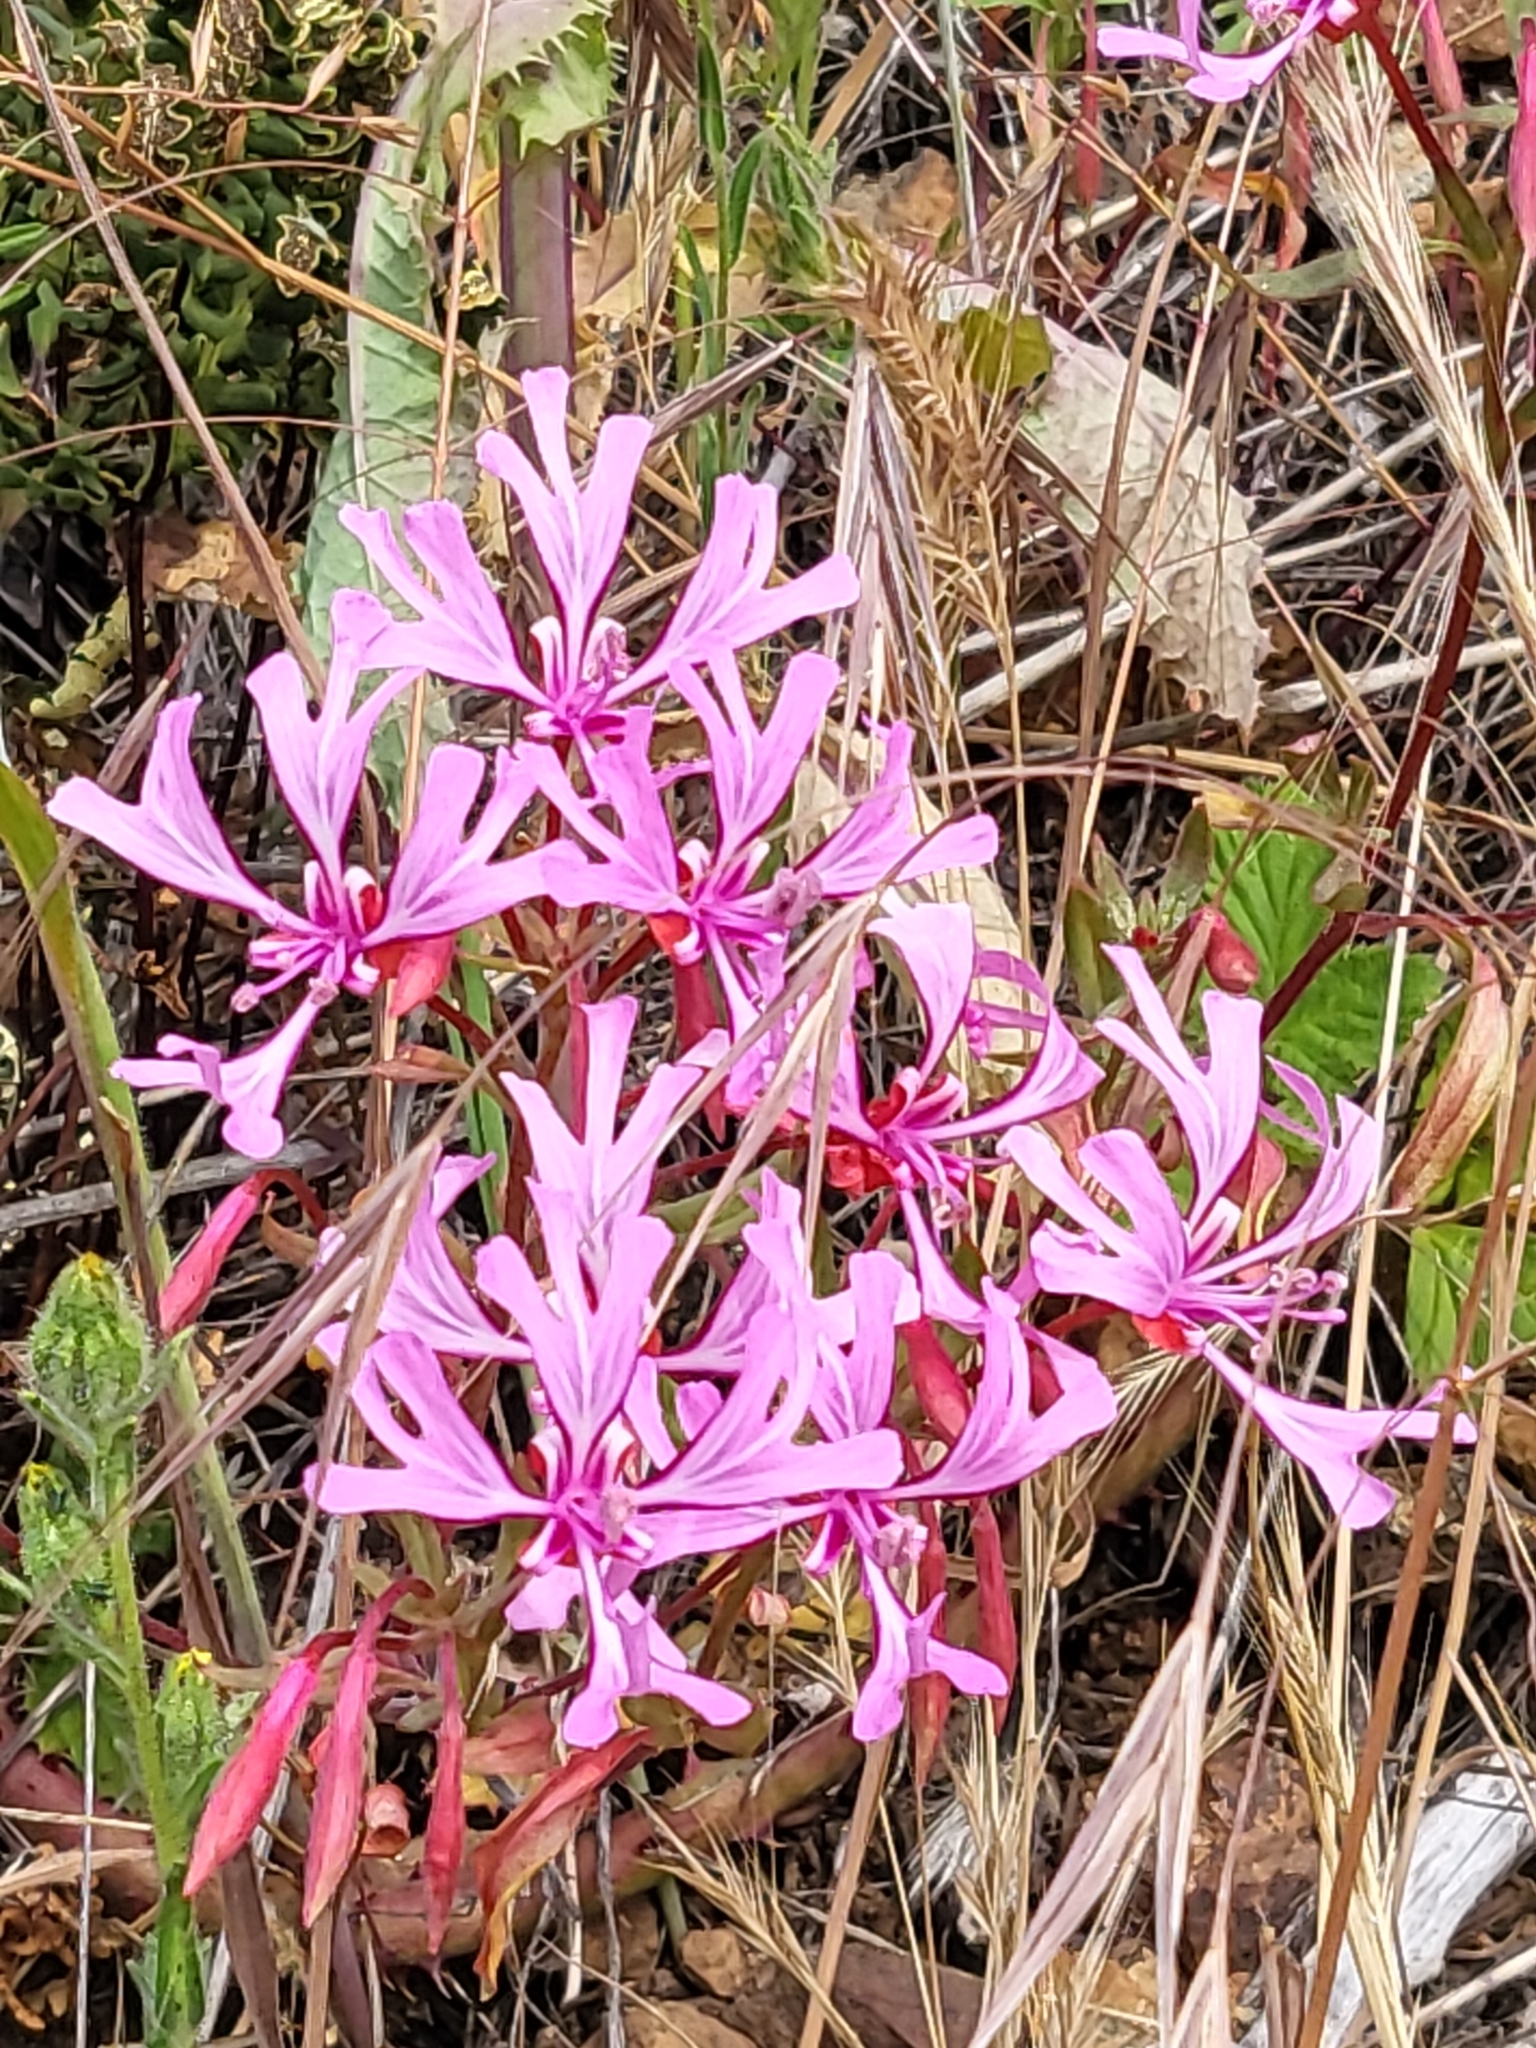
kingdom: Plantae
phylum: Tracheophyta
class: Magnoliopsida
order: Myrtales
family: Onagraceae
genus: Clarkia
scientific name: Clarkia concinna
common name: Red-ribbons
